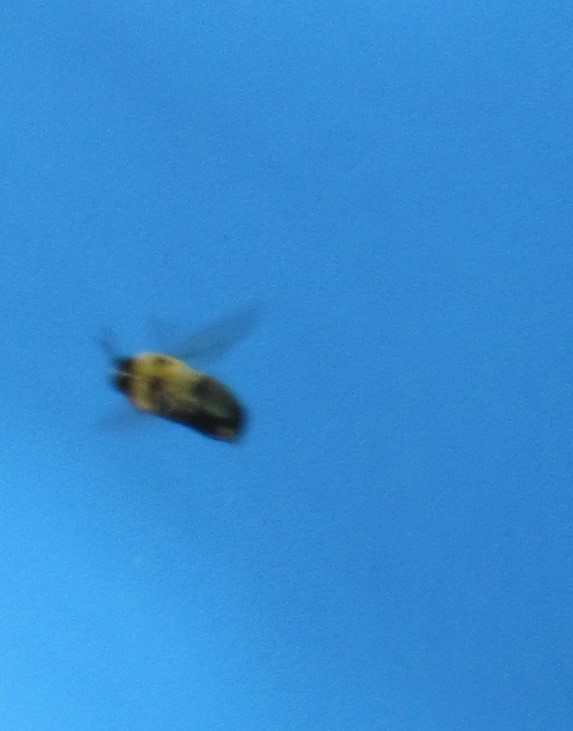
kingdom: Animalia
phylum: Arthropoda
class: Insecta
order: Hymenoptera
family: Apidae
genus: Xylocopa
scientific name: Xylocopa virginica
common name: Carpenter bee
